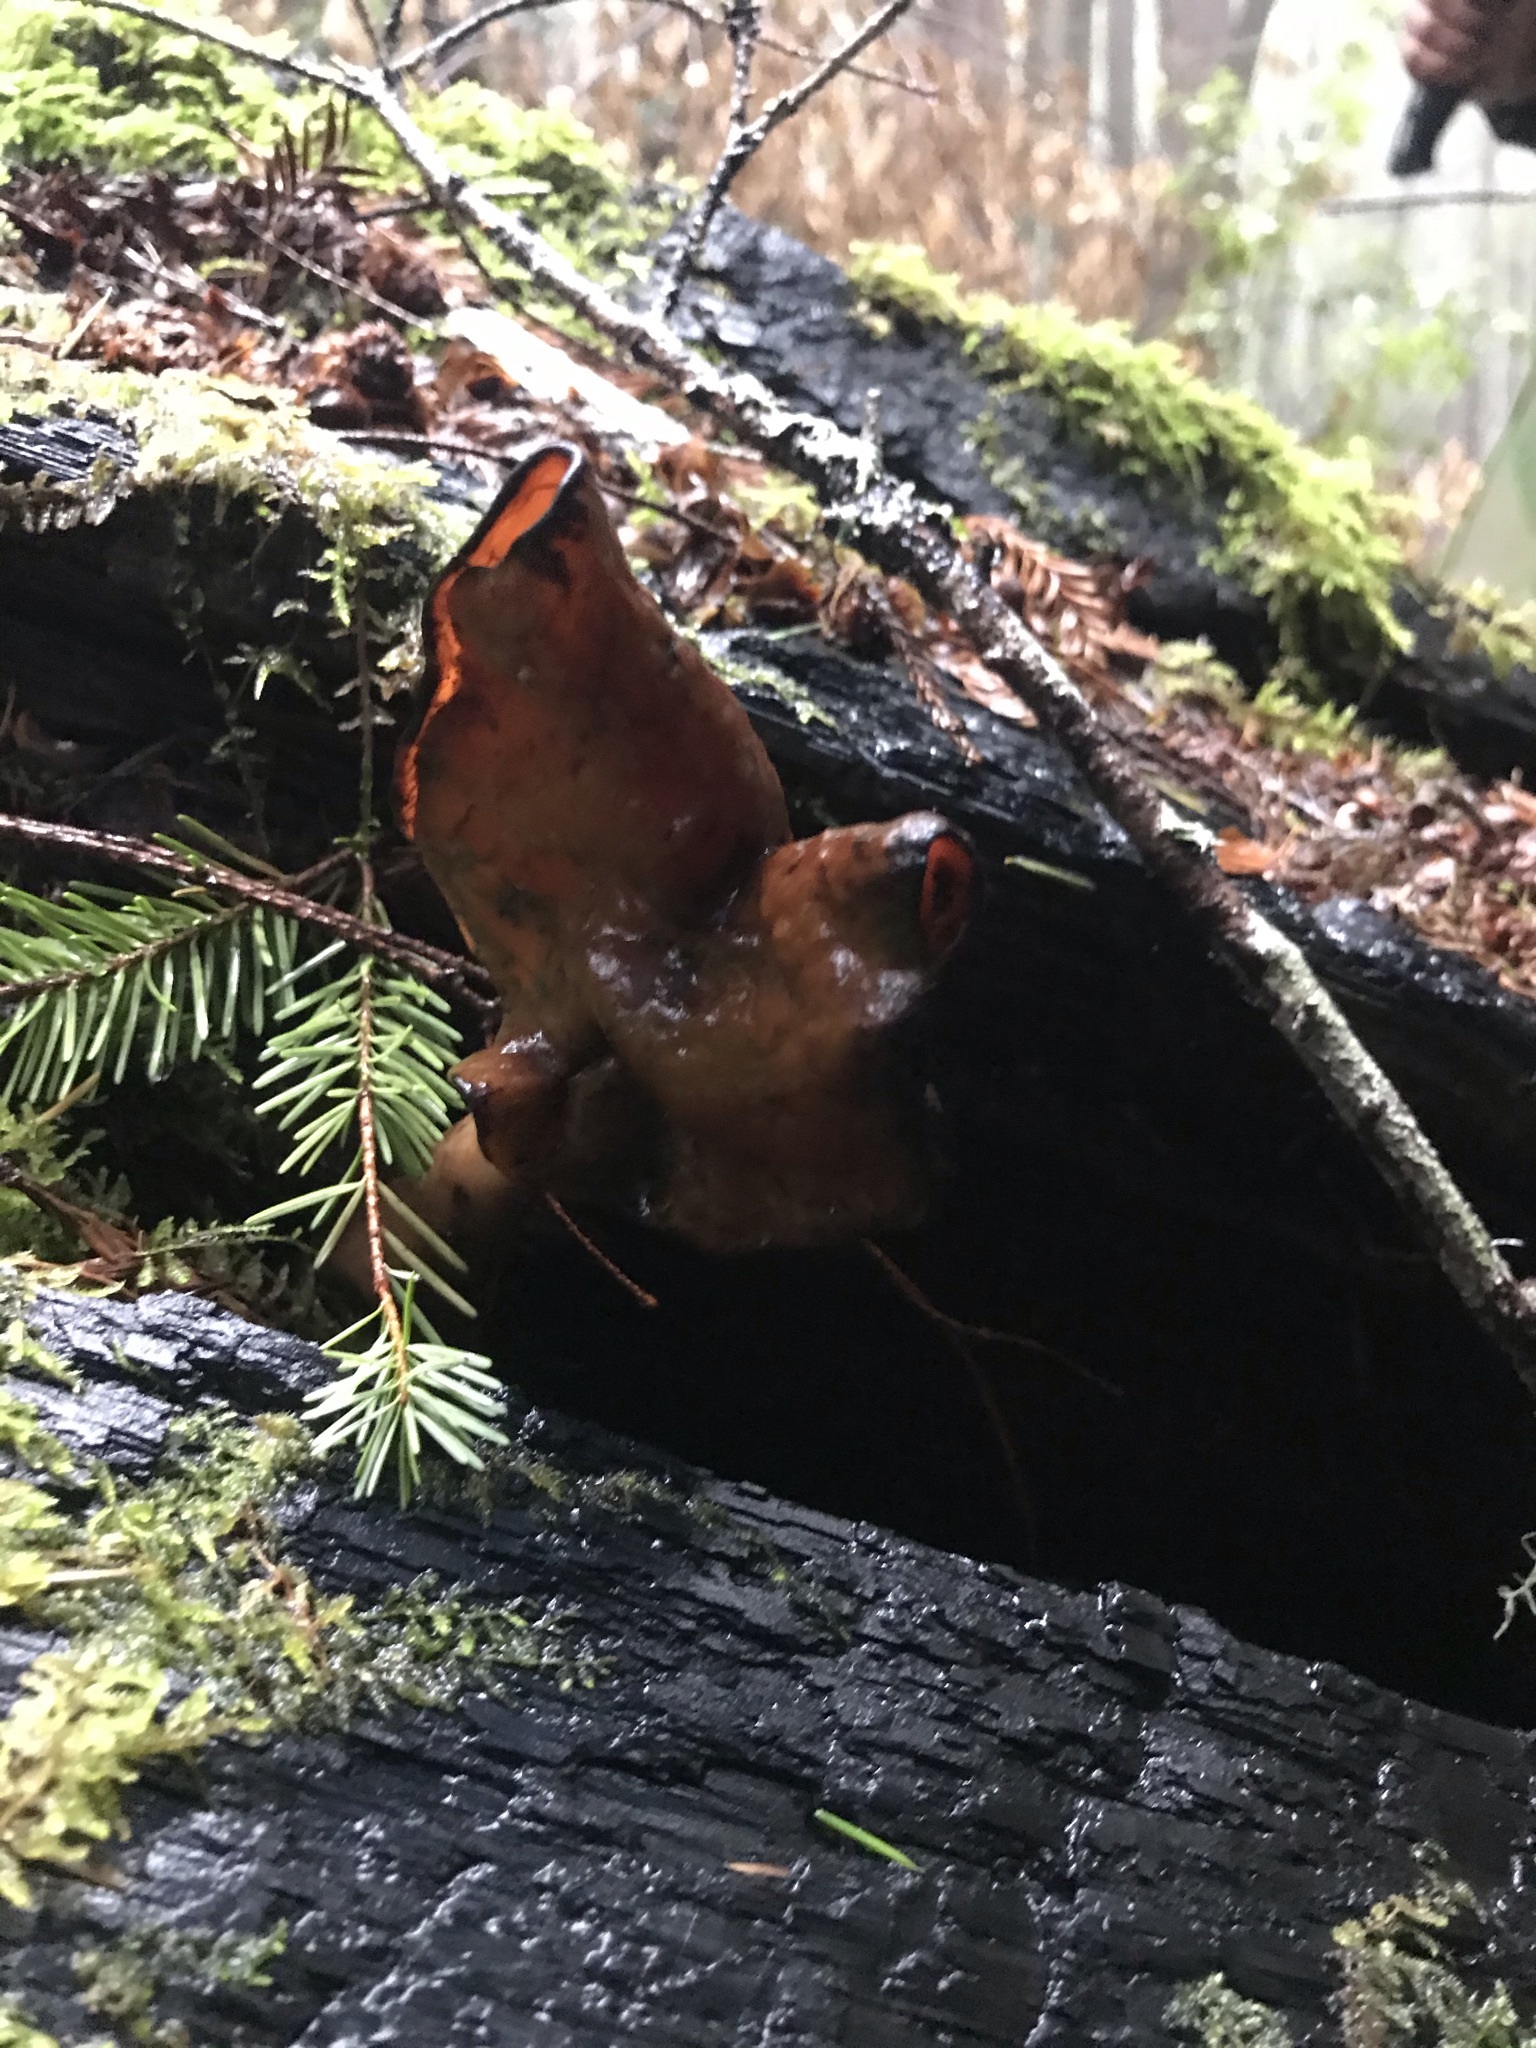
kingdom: Fungi
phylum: Ascomycota
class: Pezizomycetes
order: Pezizales
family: Discinaceae
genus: Gyromitra
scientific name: Gyromitra infula
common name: Pouched false morel
